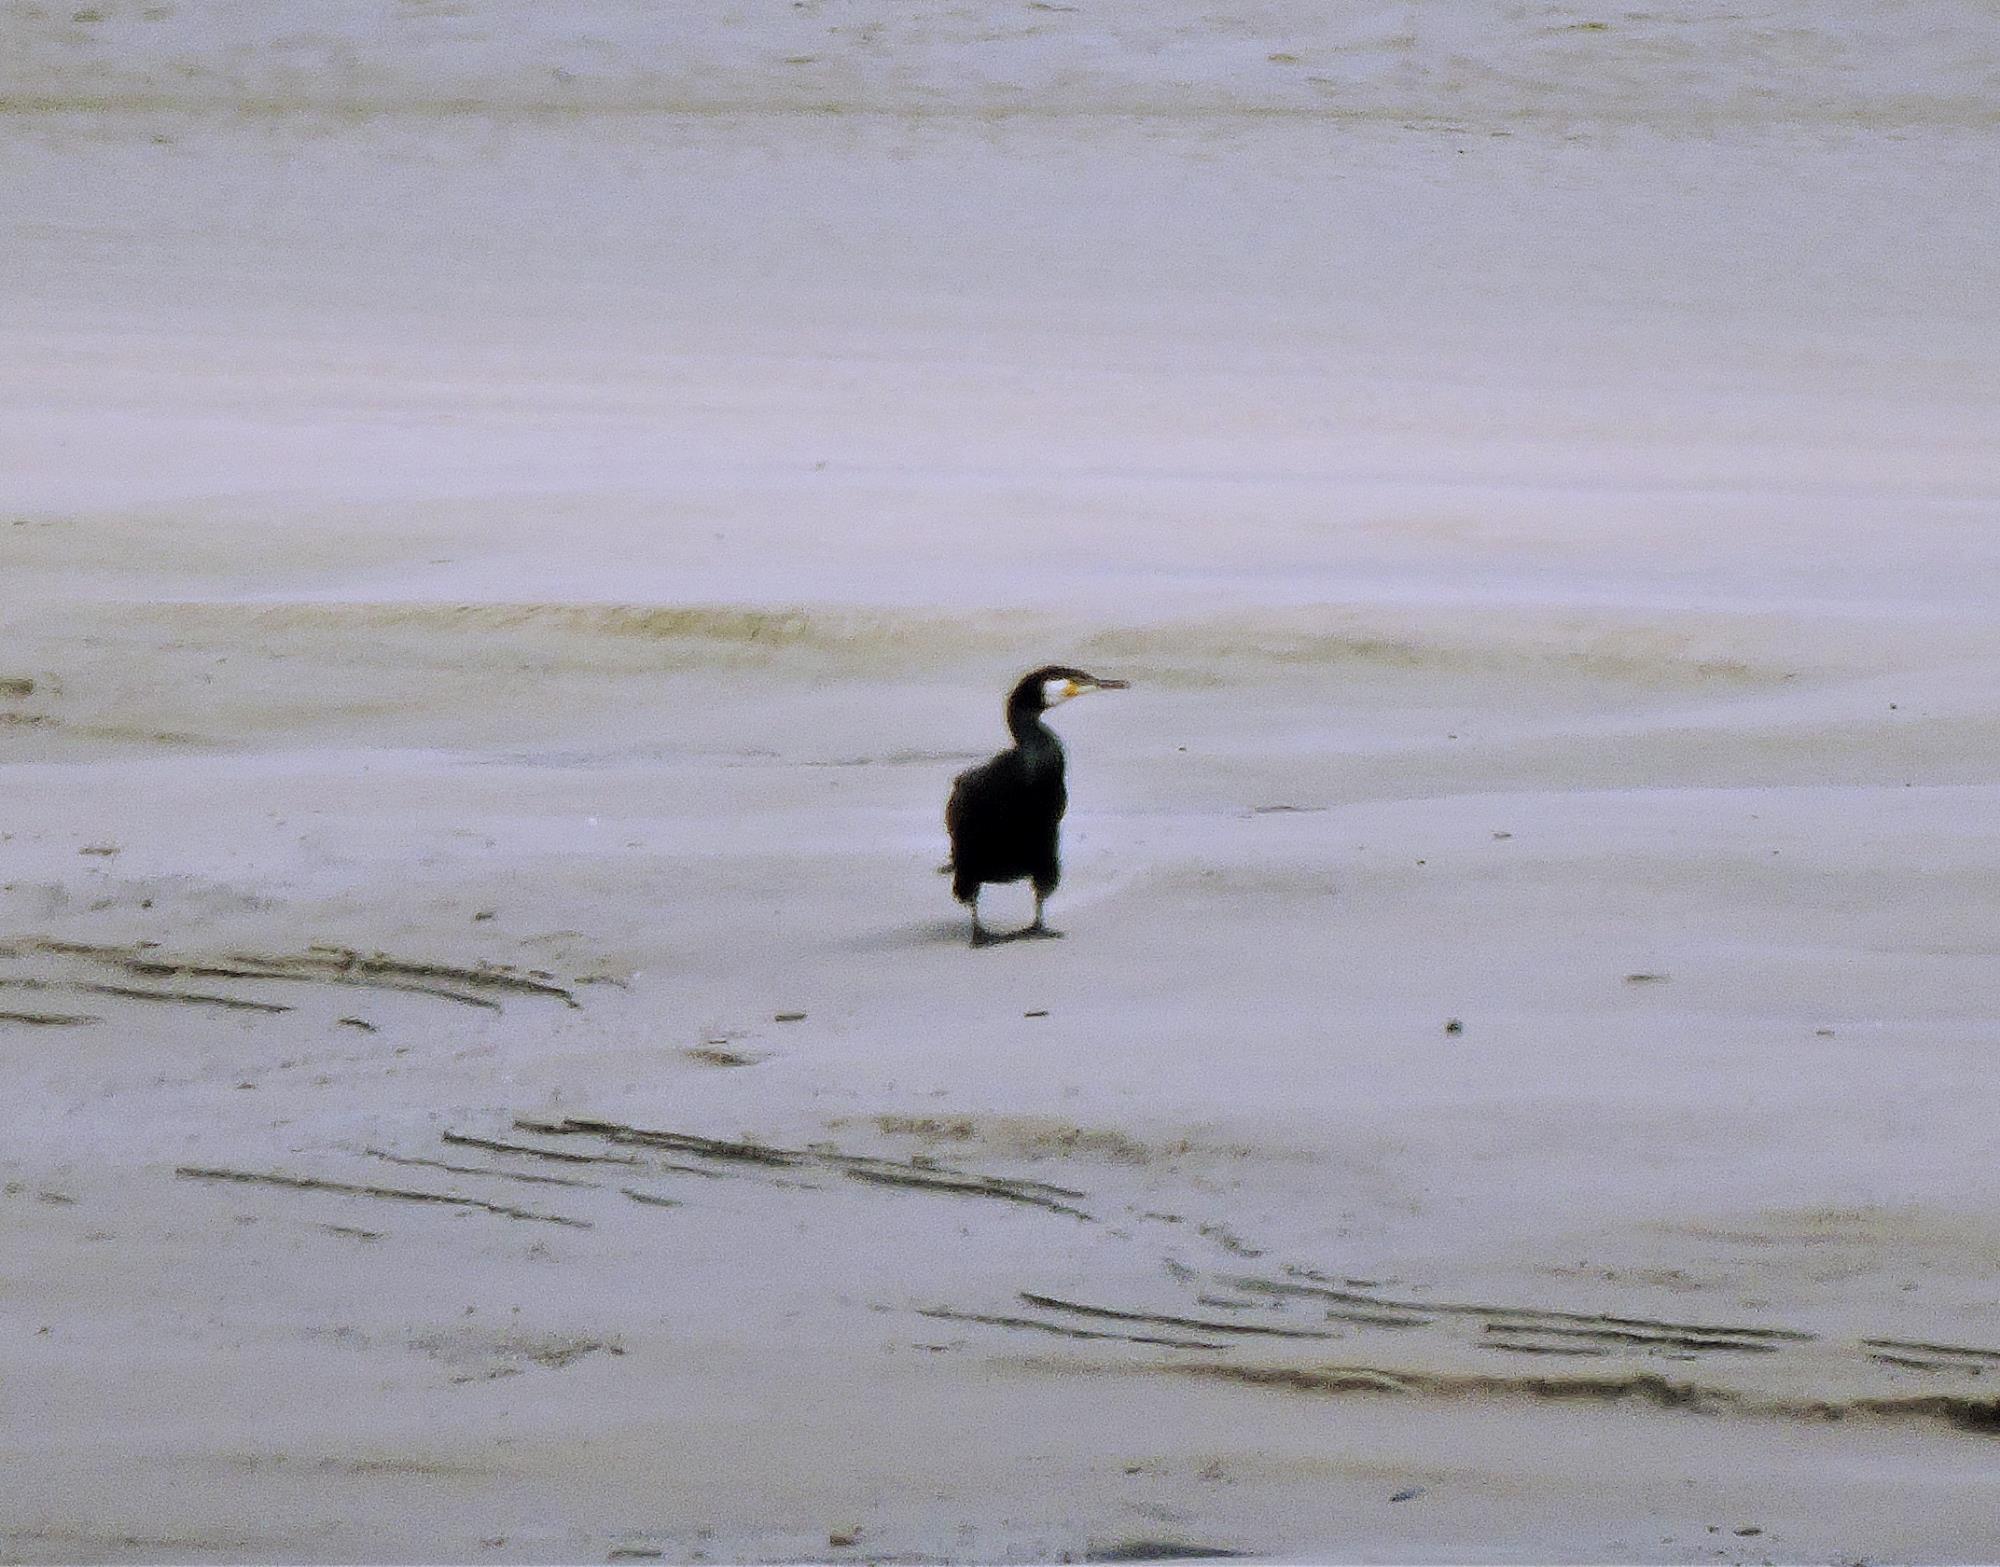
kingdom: Animalia
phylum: Chordata
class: Aves
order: Suliformes
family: Phalacrocoracidae
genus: Phalacrocorax
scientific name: Phalacrocorax carbo
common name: Great cormorant
